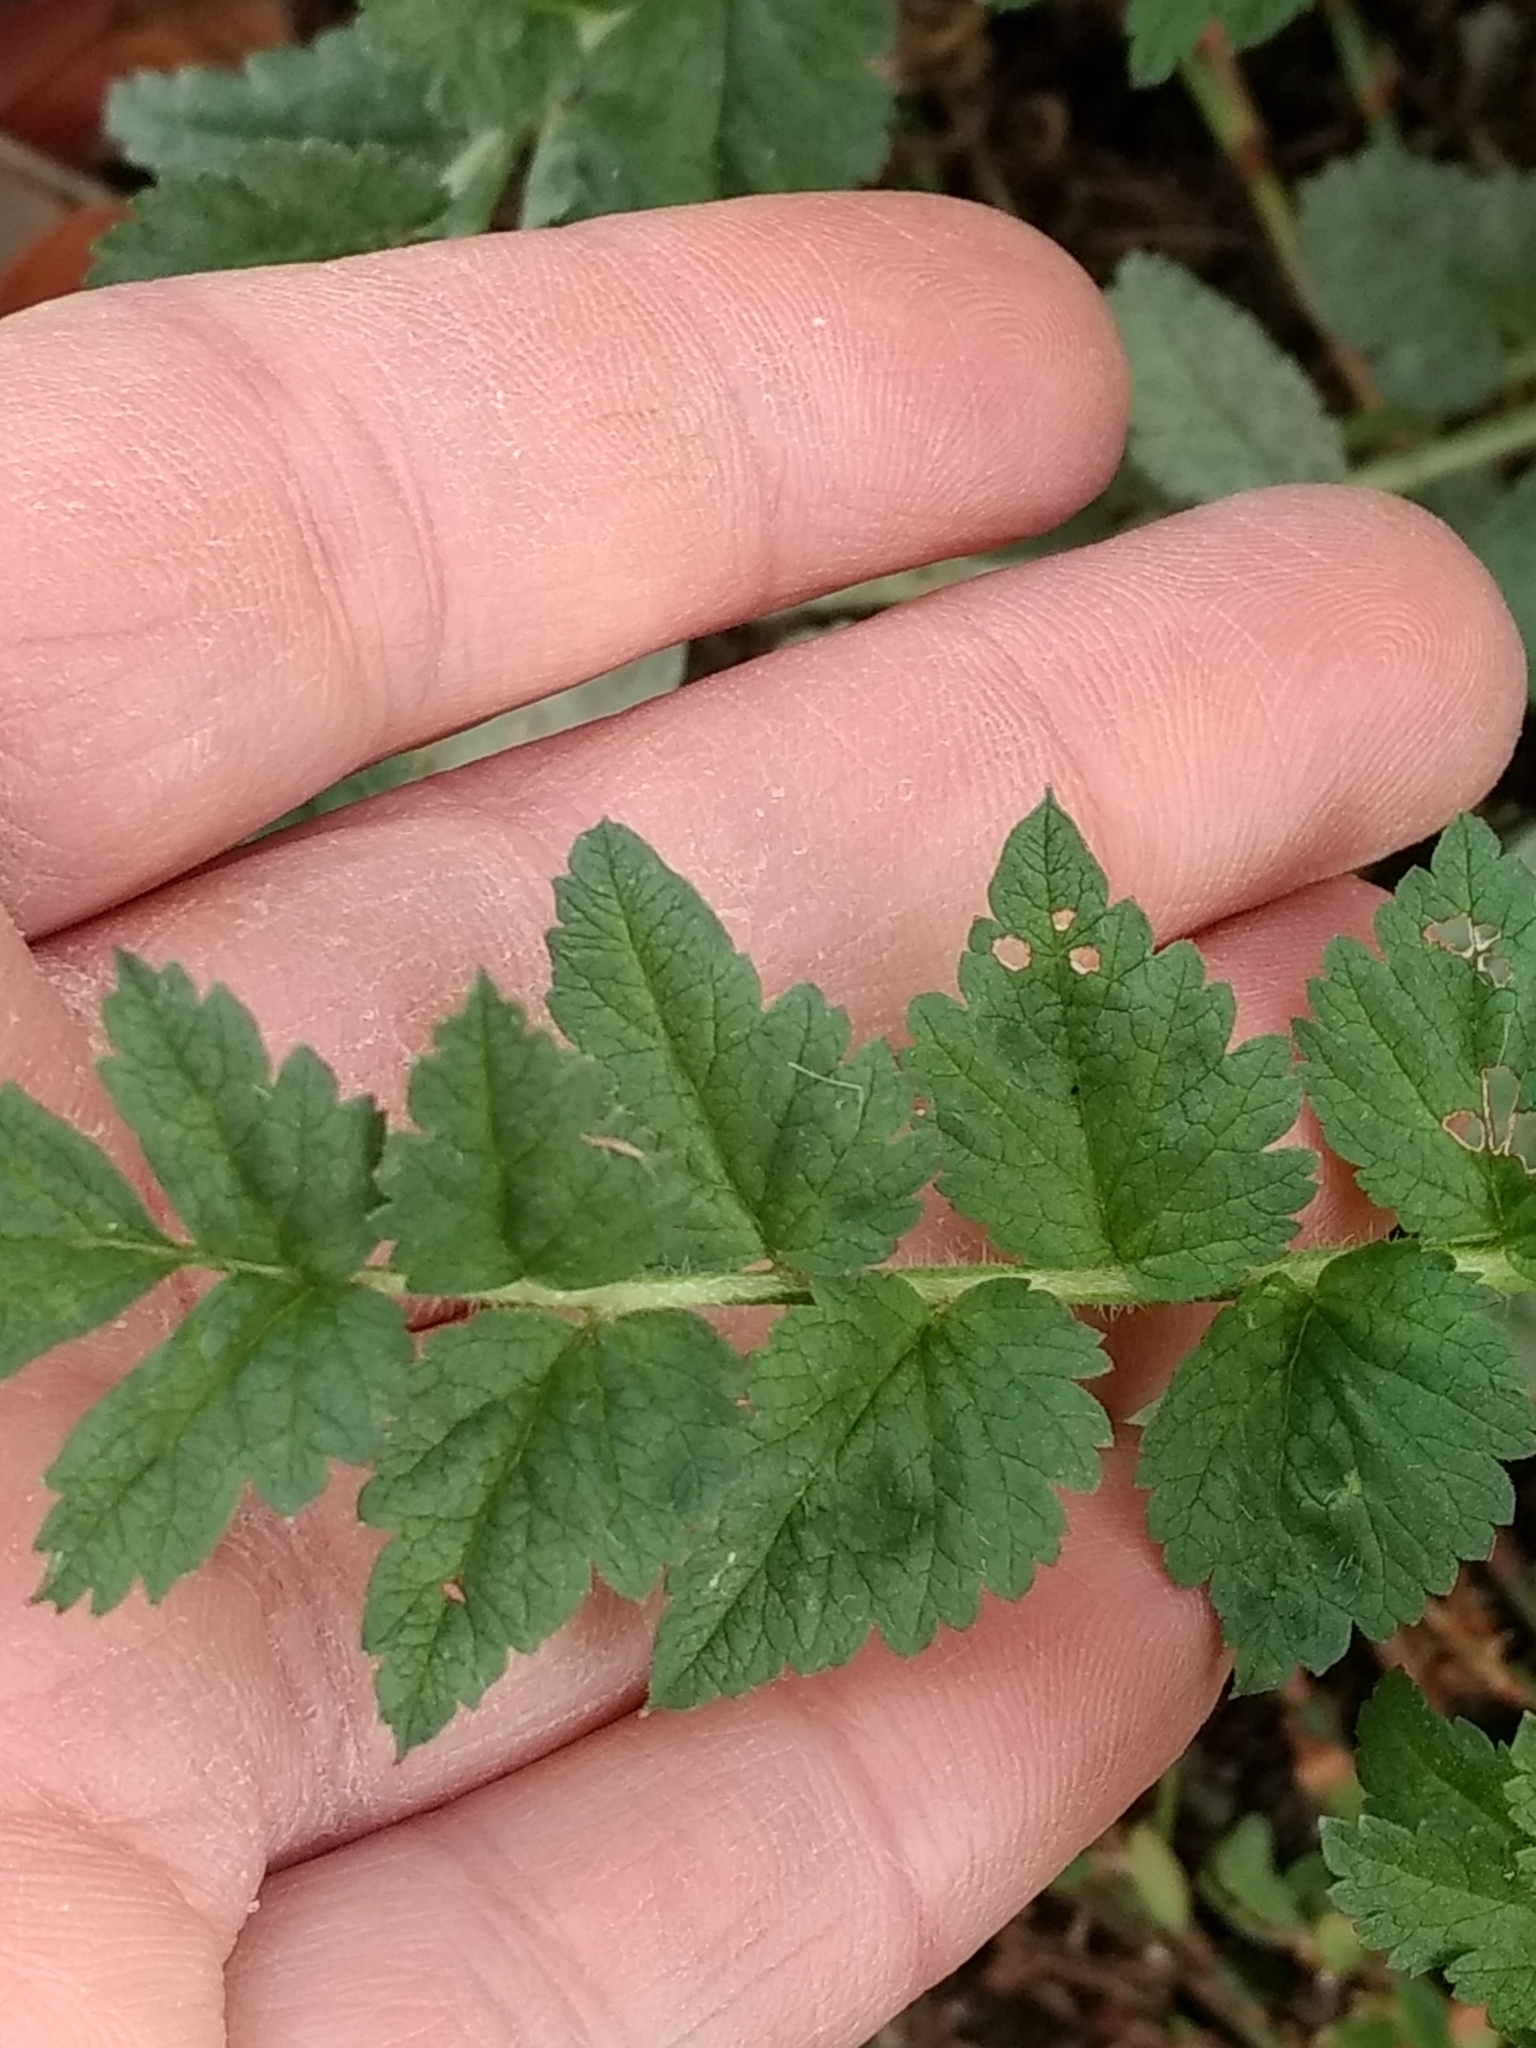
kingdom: Plantae
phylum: Tracheophyta
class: Magnoliopsida
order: Geraniales
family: Geraniaceae
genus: Erodium
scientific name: Erodium moschatum
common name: Musk stork's-bill
